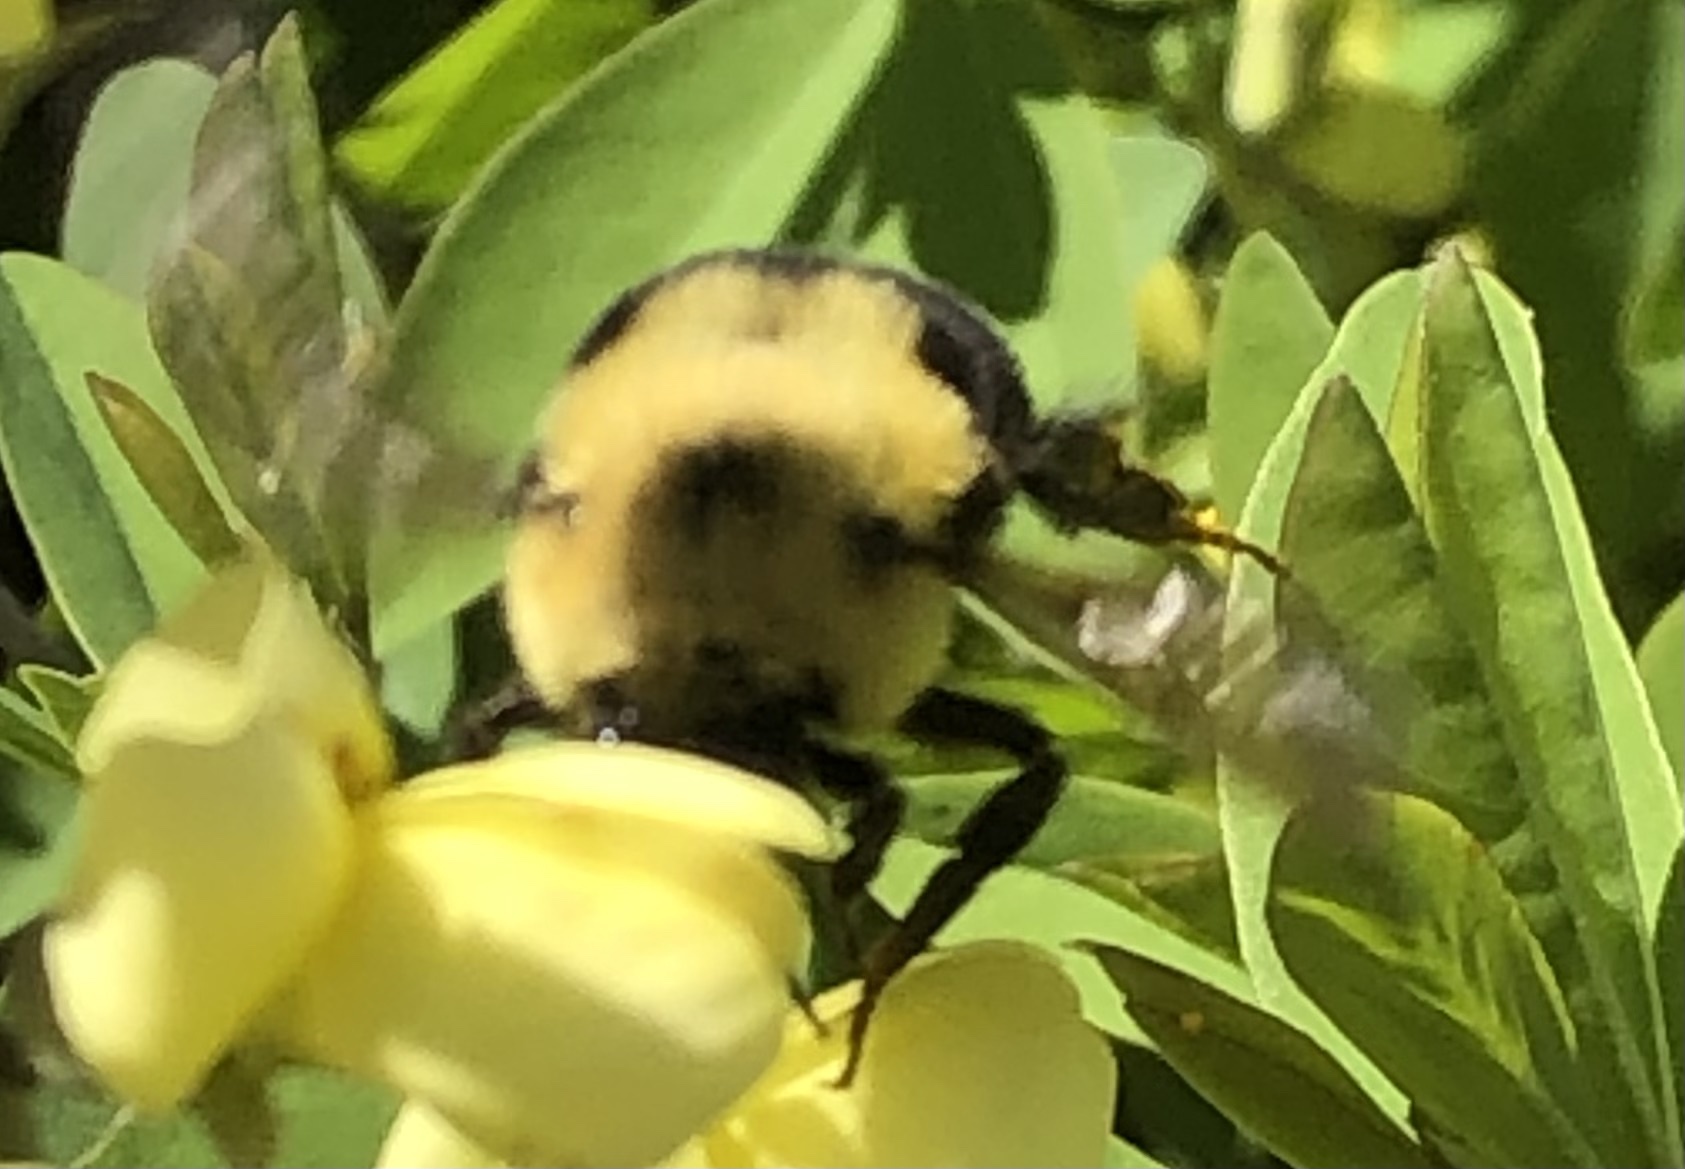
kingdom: Animalia
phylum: Arthropoda
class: Insecta
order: Hymenoptera
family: Apidae
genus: Bombus
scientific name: Bombus bimaculatus
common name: Two-spotted bumble bee
